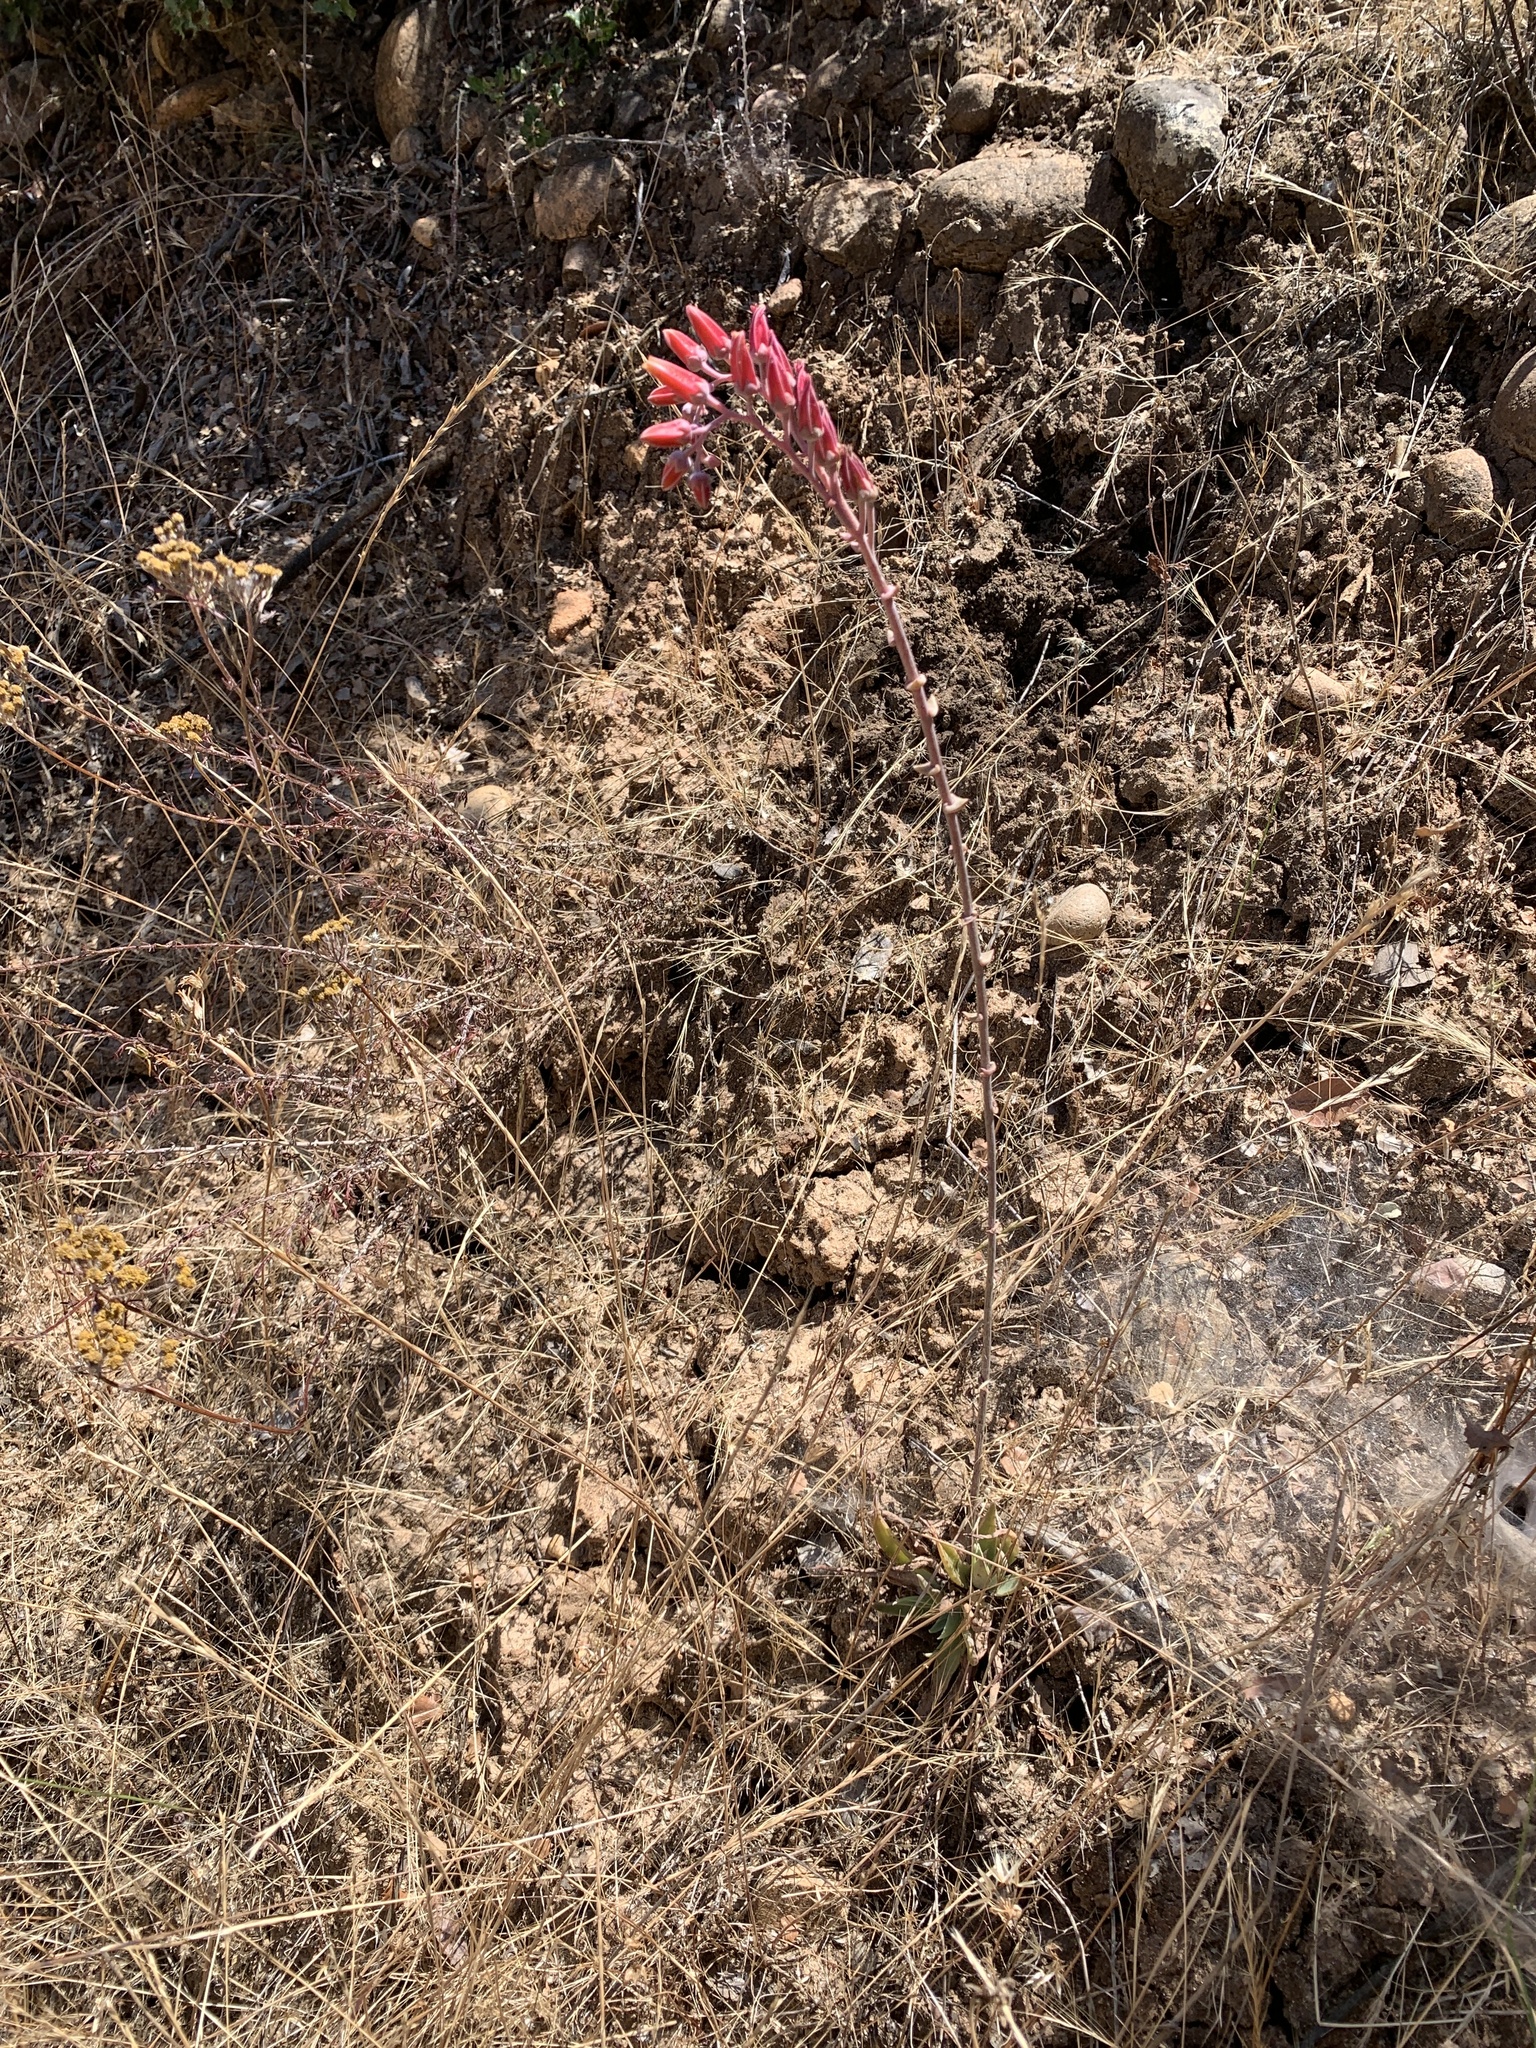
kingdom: Plantae
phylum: Tracheophyta
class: Magnoliopsida
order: Saxifragales
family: Crassulaceae
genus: Dudleya
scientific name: Dudleya lanceolata
